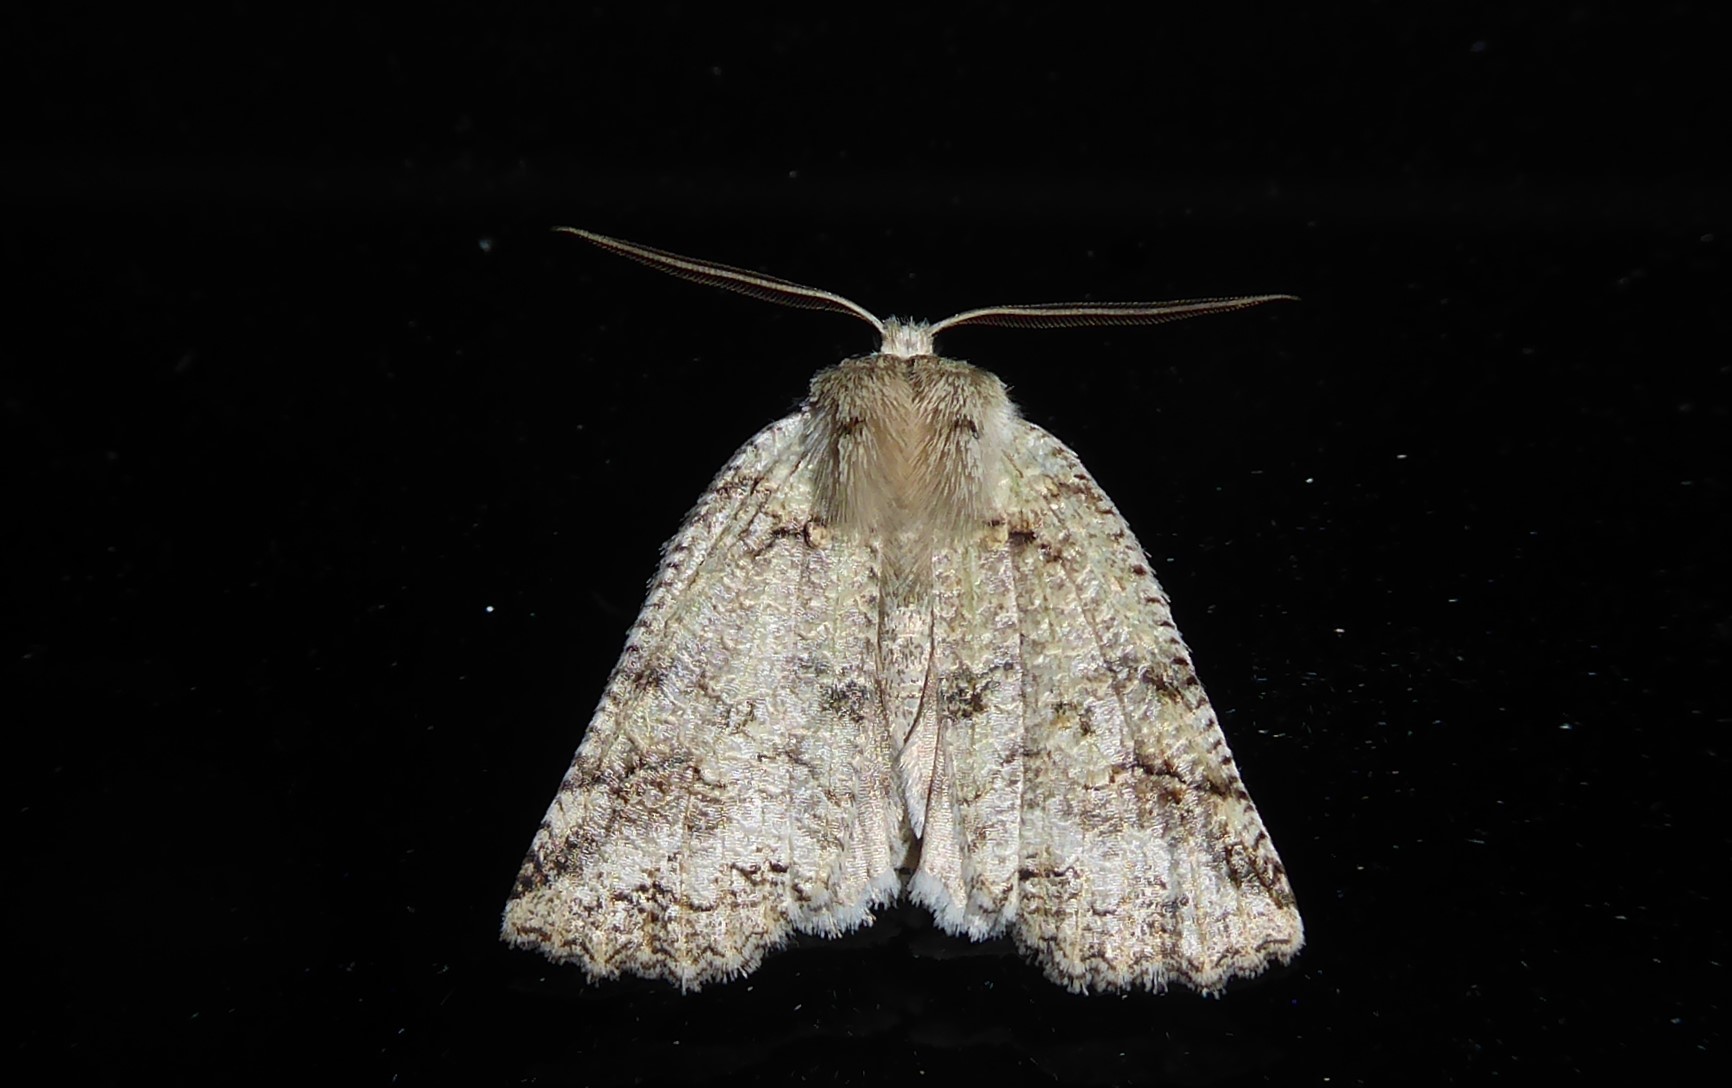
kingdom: Animalia
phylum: Arthropoda
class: Insecta
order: Lepidoptera
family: Geometridae
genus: Declana
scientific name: Declana floccosa
